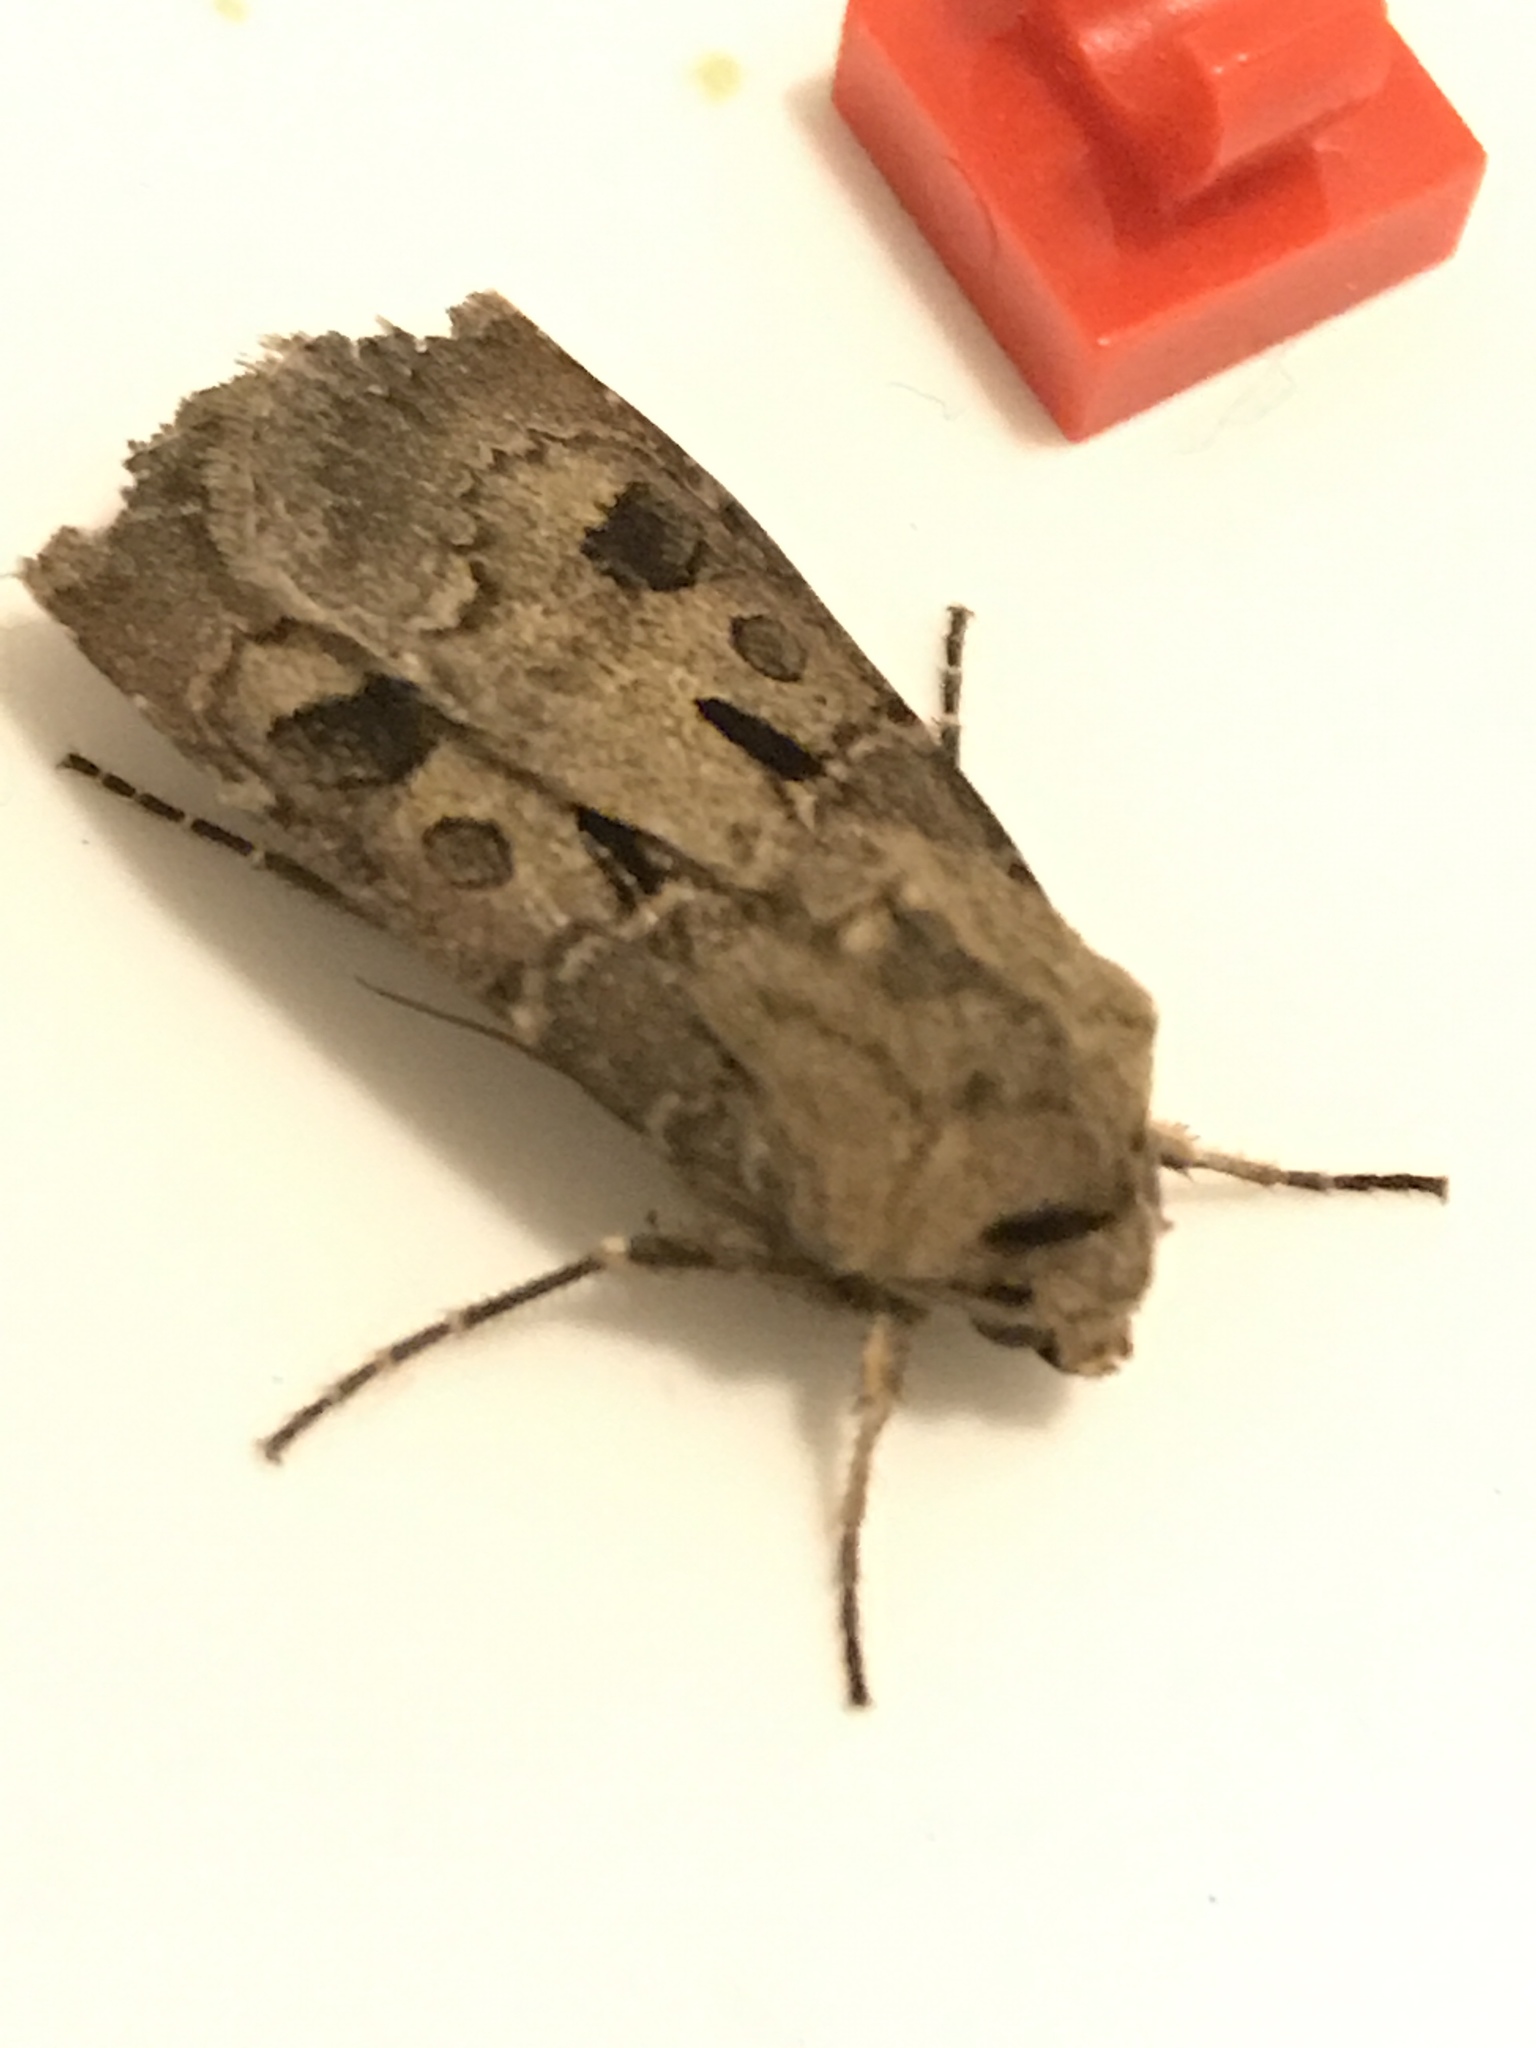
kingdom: Animalia
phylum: Arthropoda
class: Insecta
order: Lepidoptera
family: Noctuidae
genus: Agrotis
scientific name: Agrotis exclamationis
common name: Heart and dart
